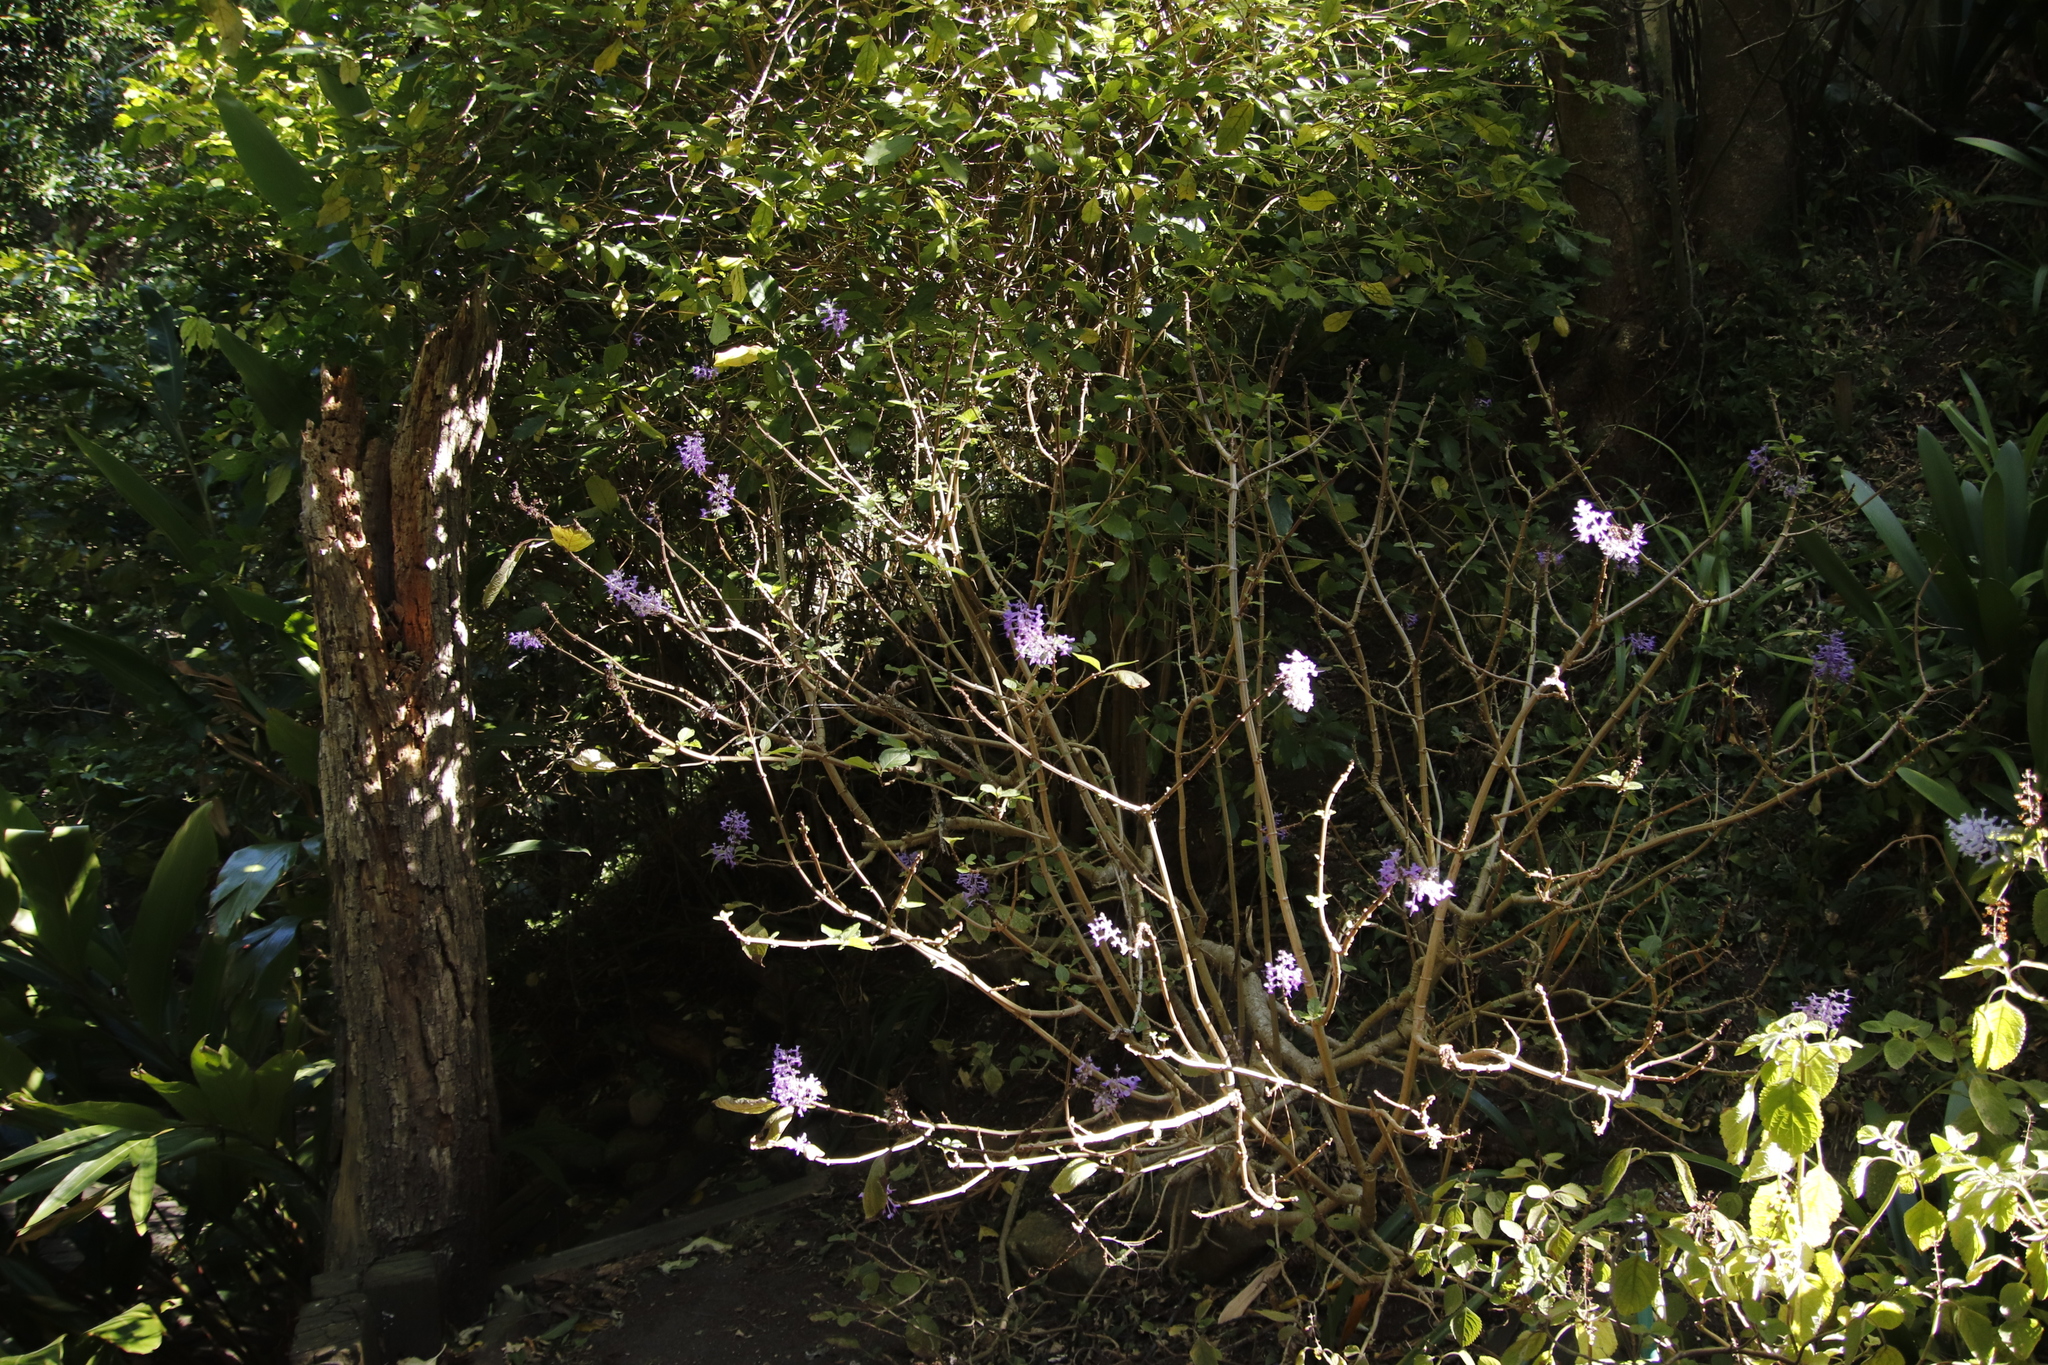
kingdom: Plantae
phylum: Tracheophyta
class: Magnoliopsida
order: Lamiales
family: Lamiaceae
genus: Plectranthus
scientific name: Plectranthus ecklonii
